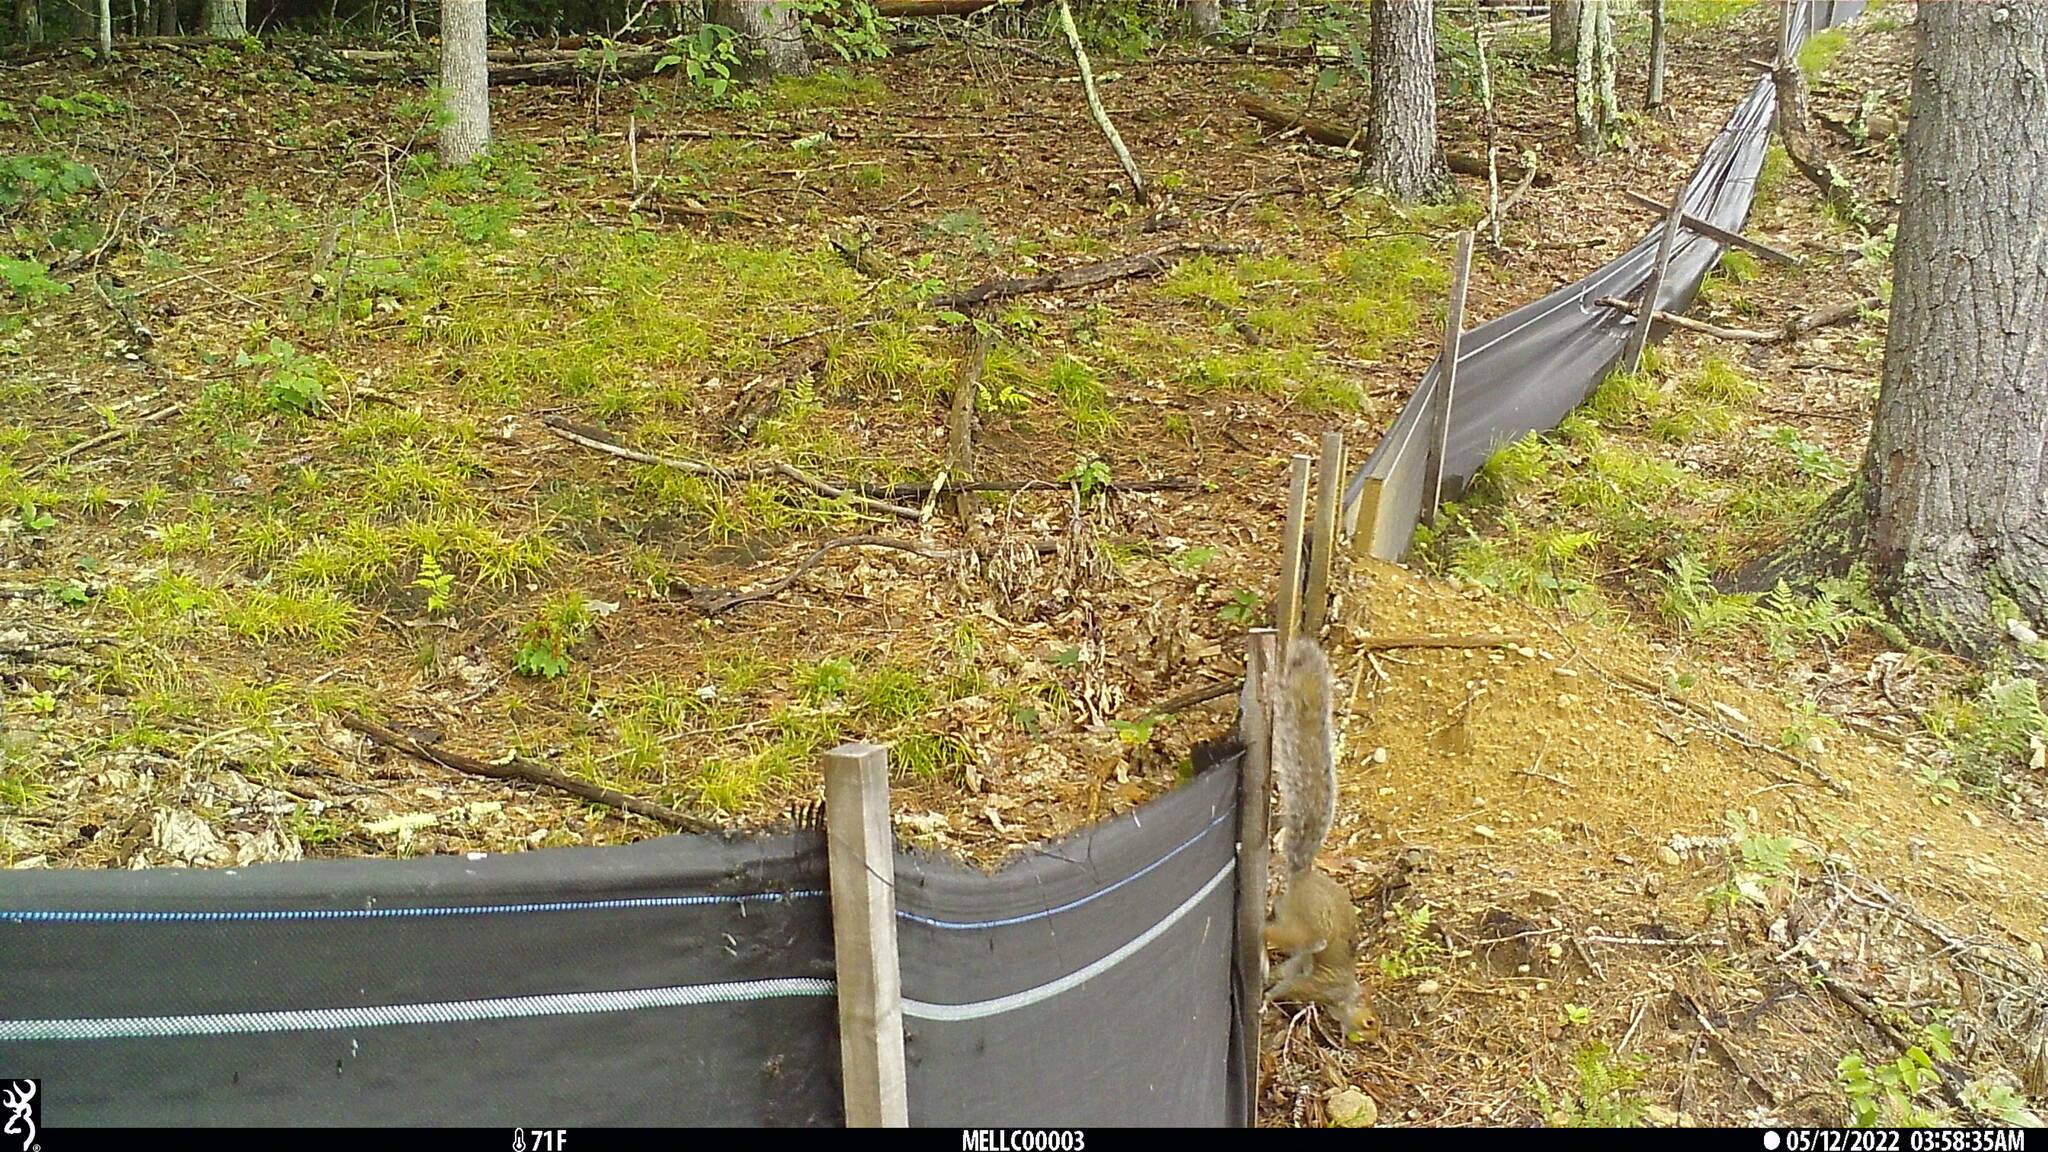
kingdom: Animalia
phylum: Chordata
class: Mammalia
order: Rodentia
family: Sciuridae
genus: Sciurus
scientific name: Sciurus carolinensis
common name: Eastern gray squirrel
